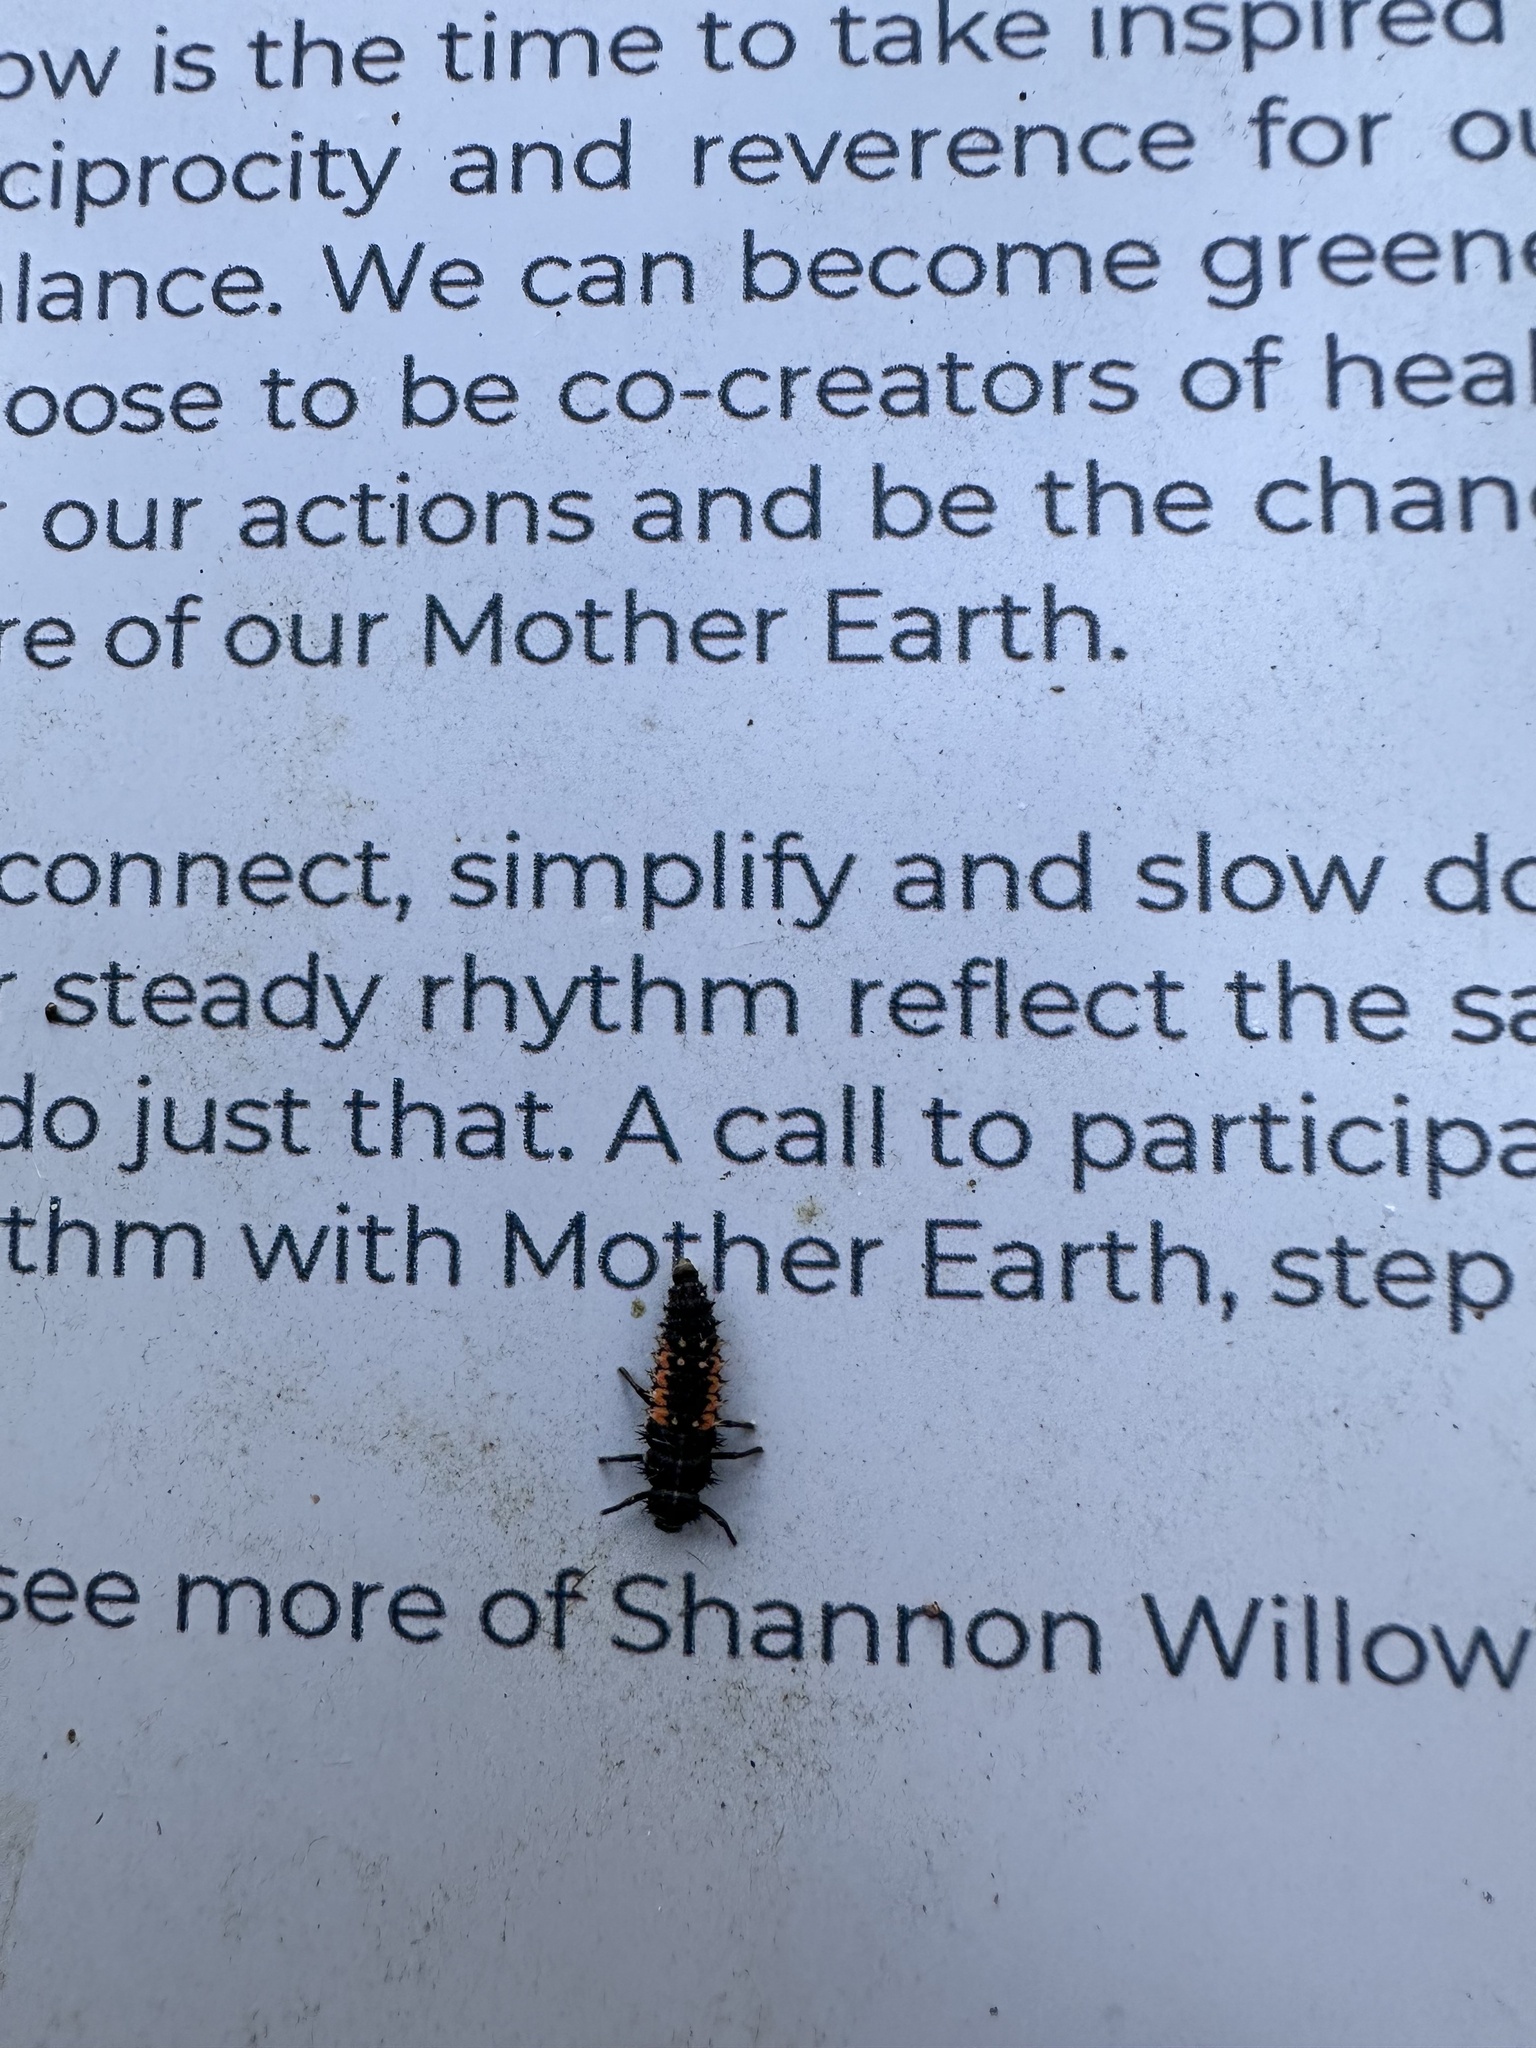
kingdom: Animalia
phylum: Arthropoda
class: Insecta
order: Coleoptera
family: Coccinellidae
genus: Harmonia
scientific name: Harmonia axyridis
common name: Harlequin ladybird
